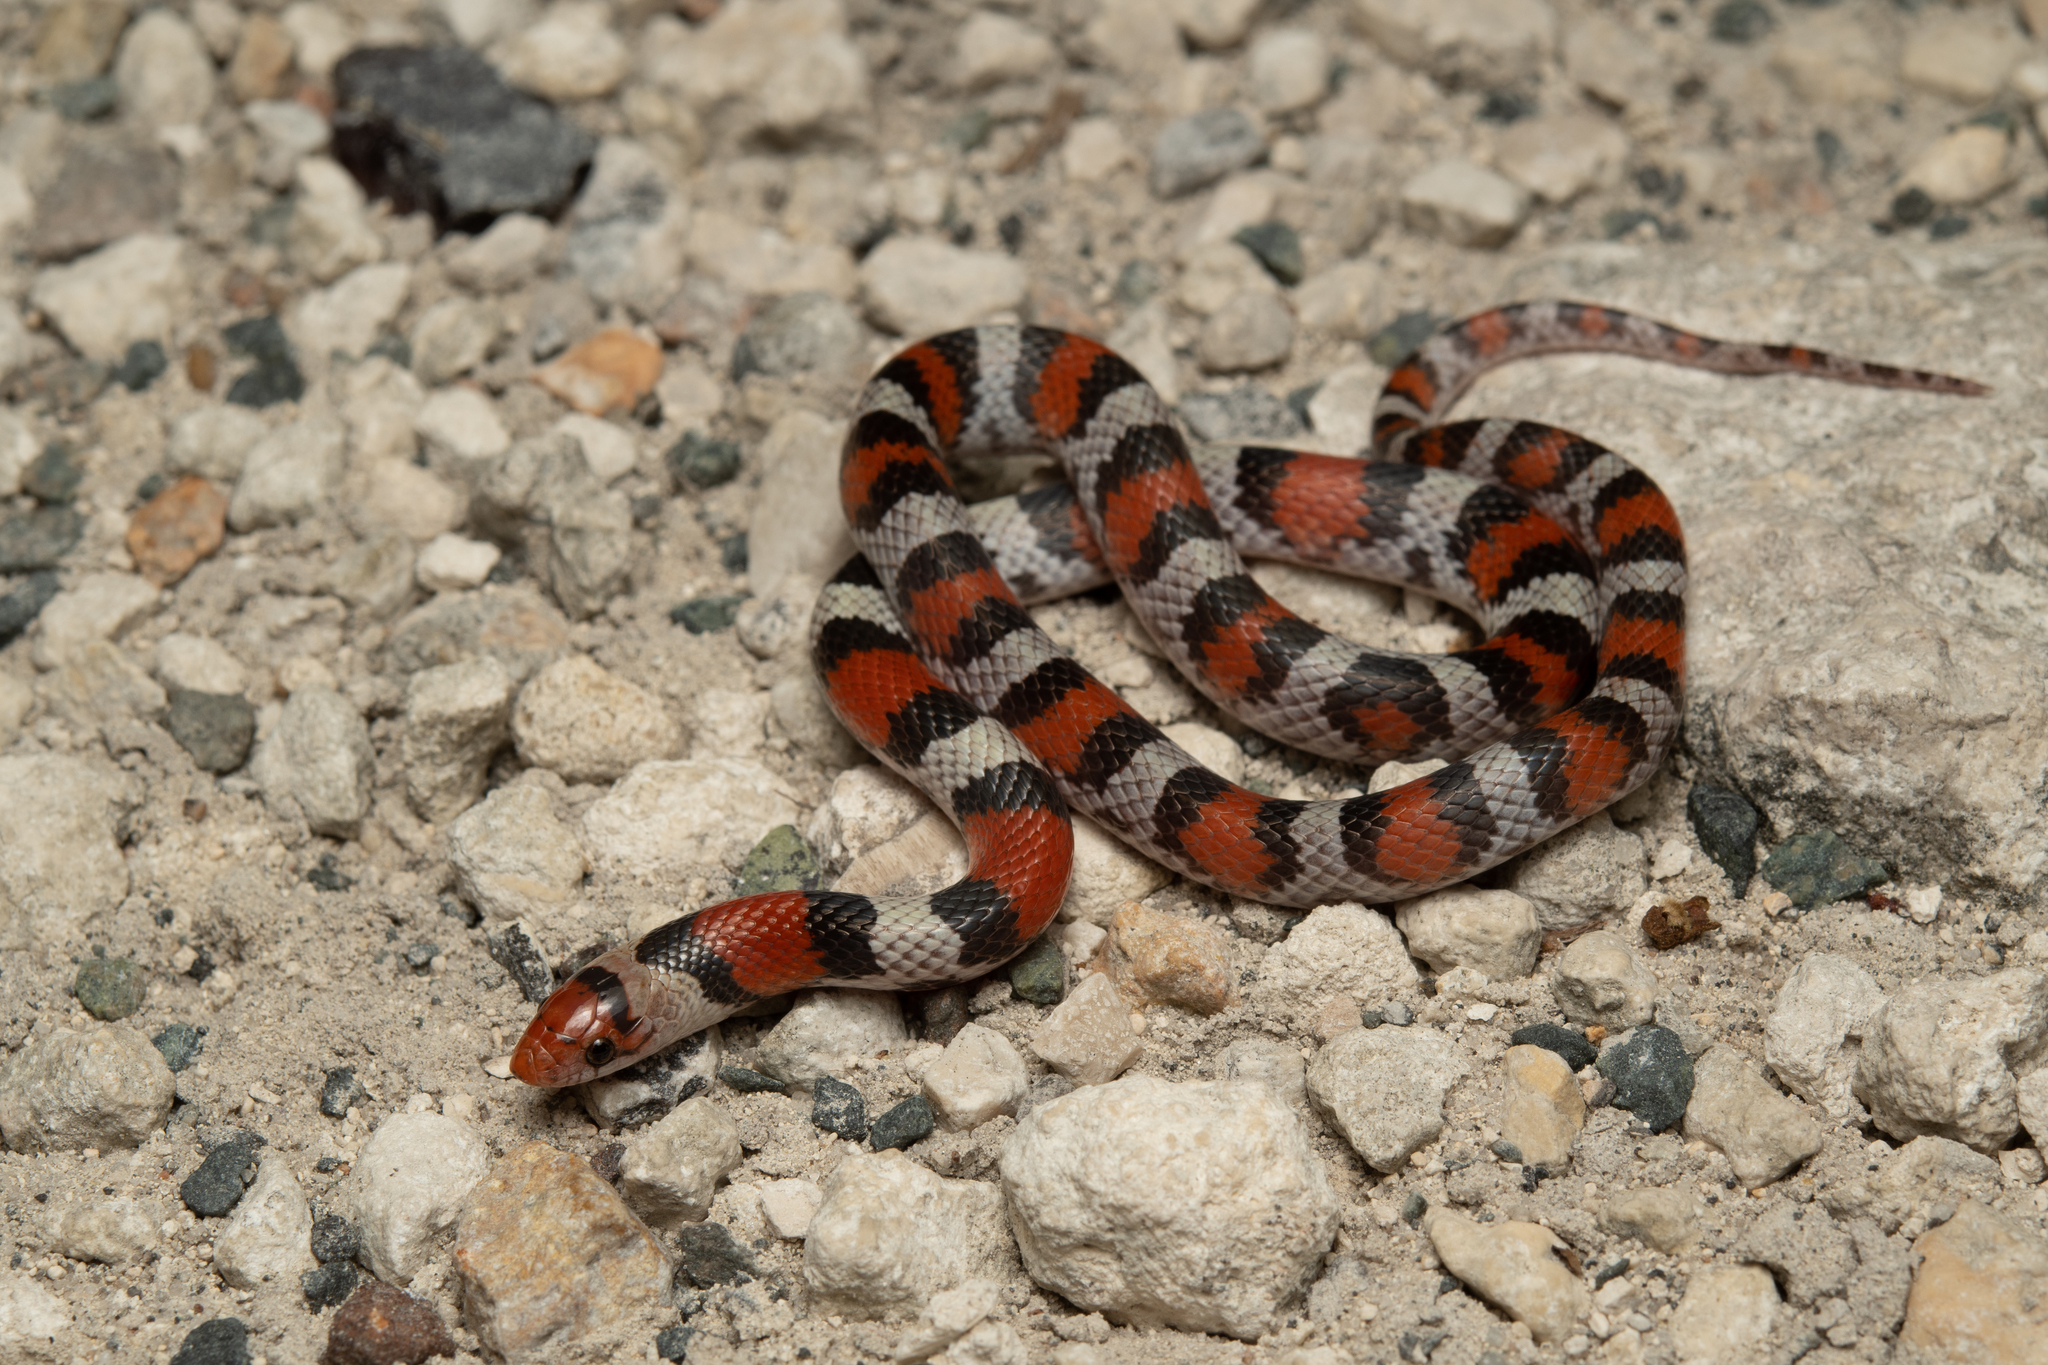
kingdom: Animalia
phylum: Chordata
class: Squamata
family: Colubridae
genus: Cemophora
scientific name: Cemophora coccinea
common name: Scarlet snake
